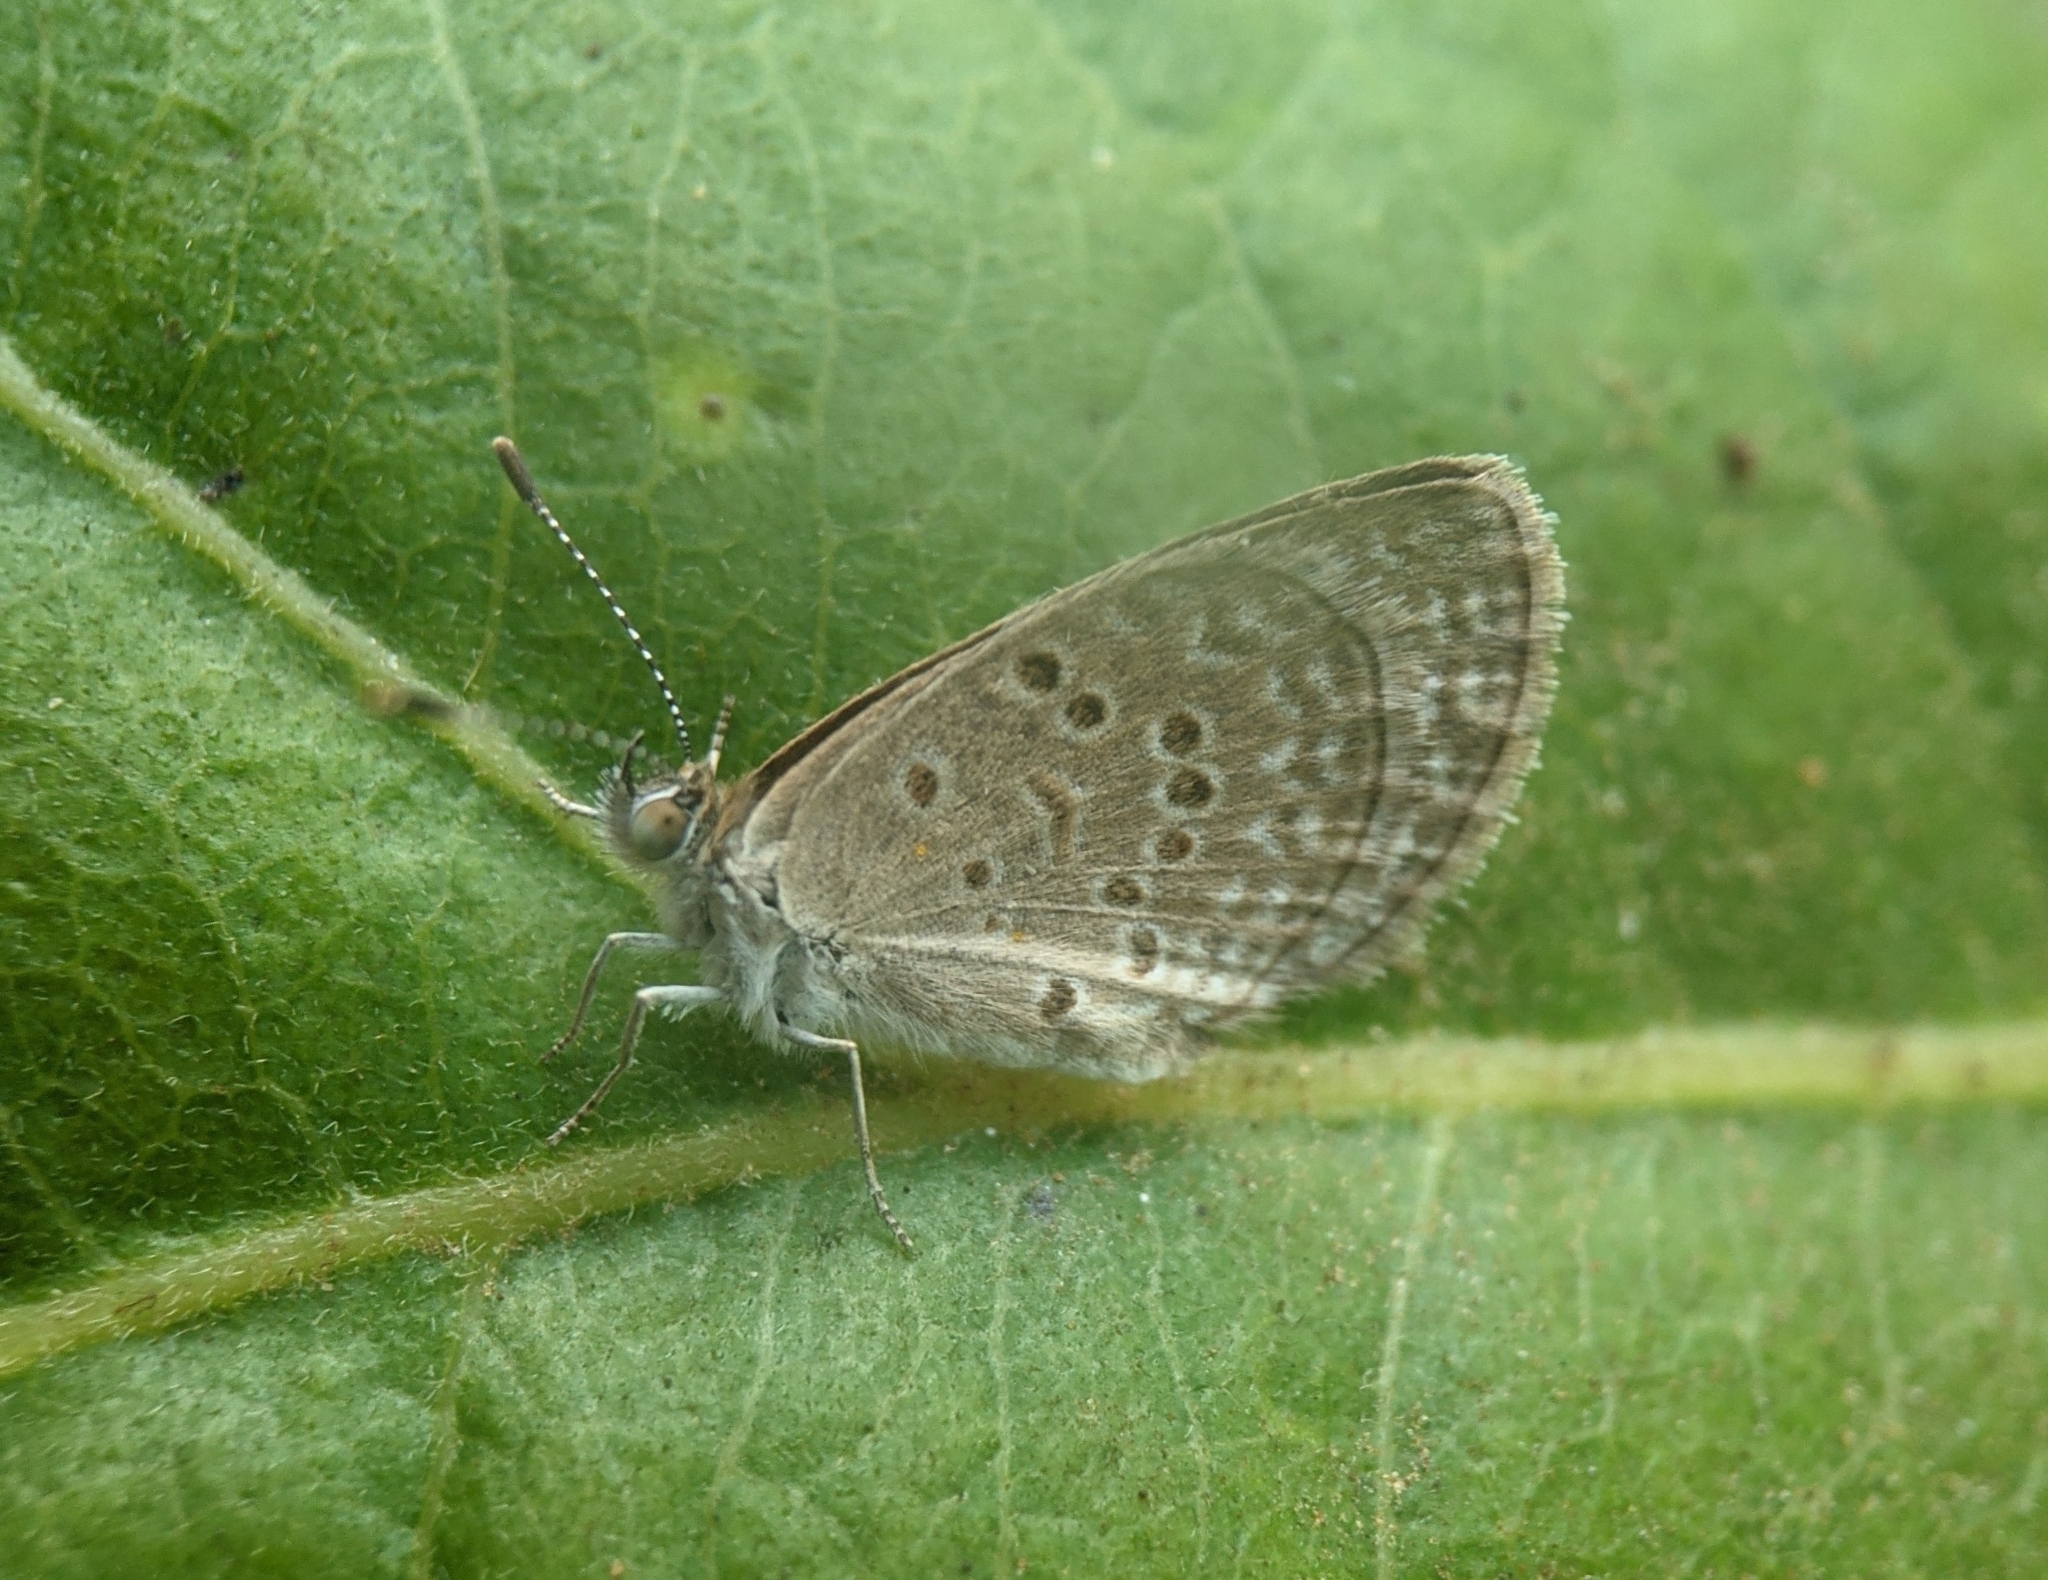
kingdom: Animalia
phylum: Arthropoda
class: Insecta
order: Lepidoptera
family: Lycaenidae
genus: Zizina
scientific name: Zizina otis
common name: Lesser grass blue
